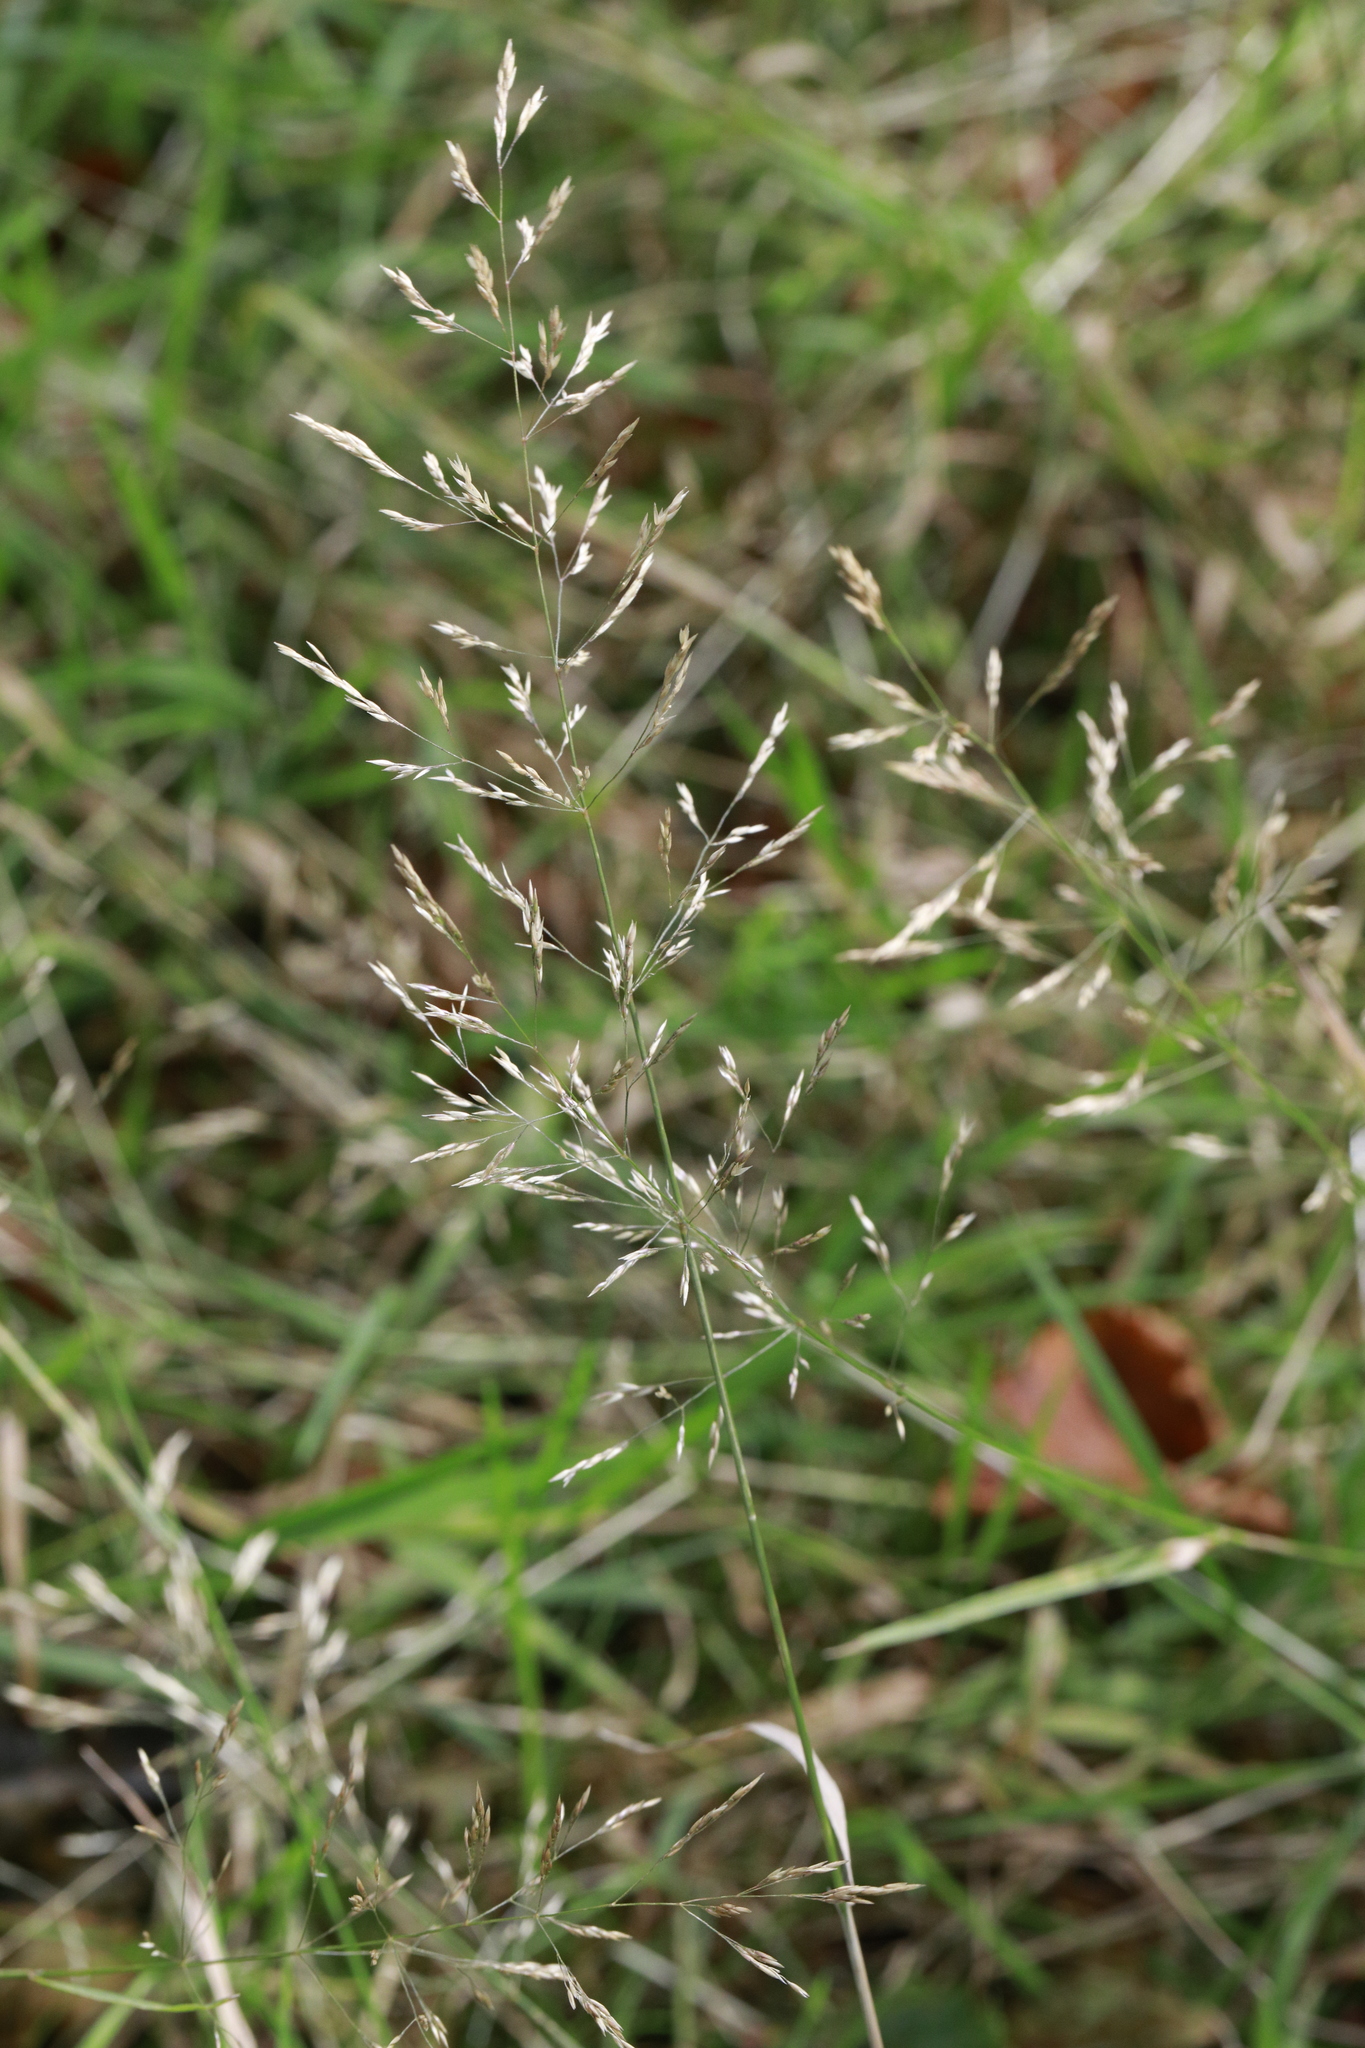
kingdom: Plantae
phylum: Tracheophyta
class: Liliopsida
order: Poales
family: Poaceae
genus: Agrostis
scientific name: Agrostis capillaris
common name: Colonial bentgrass
